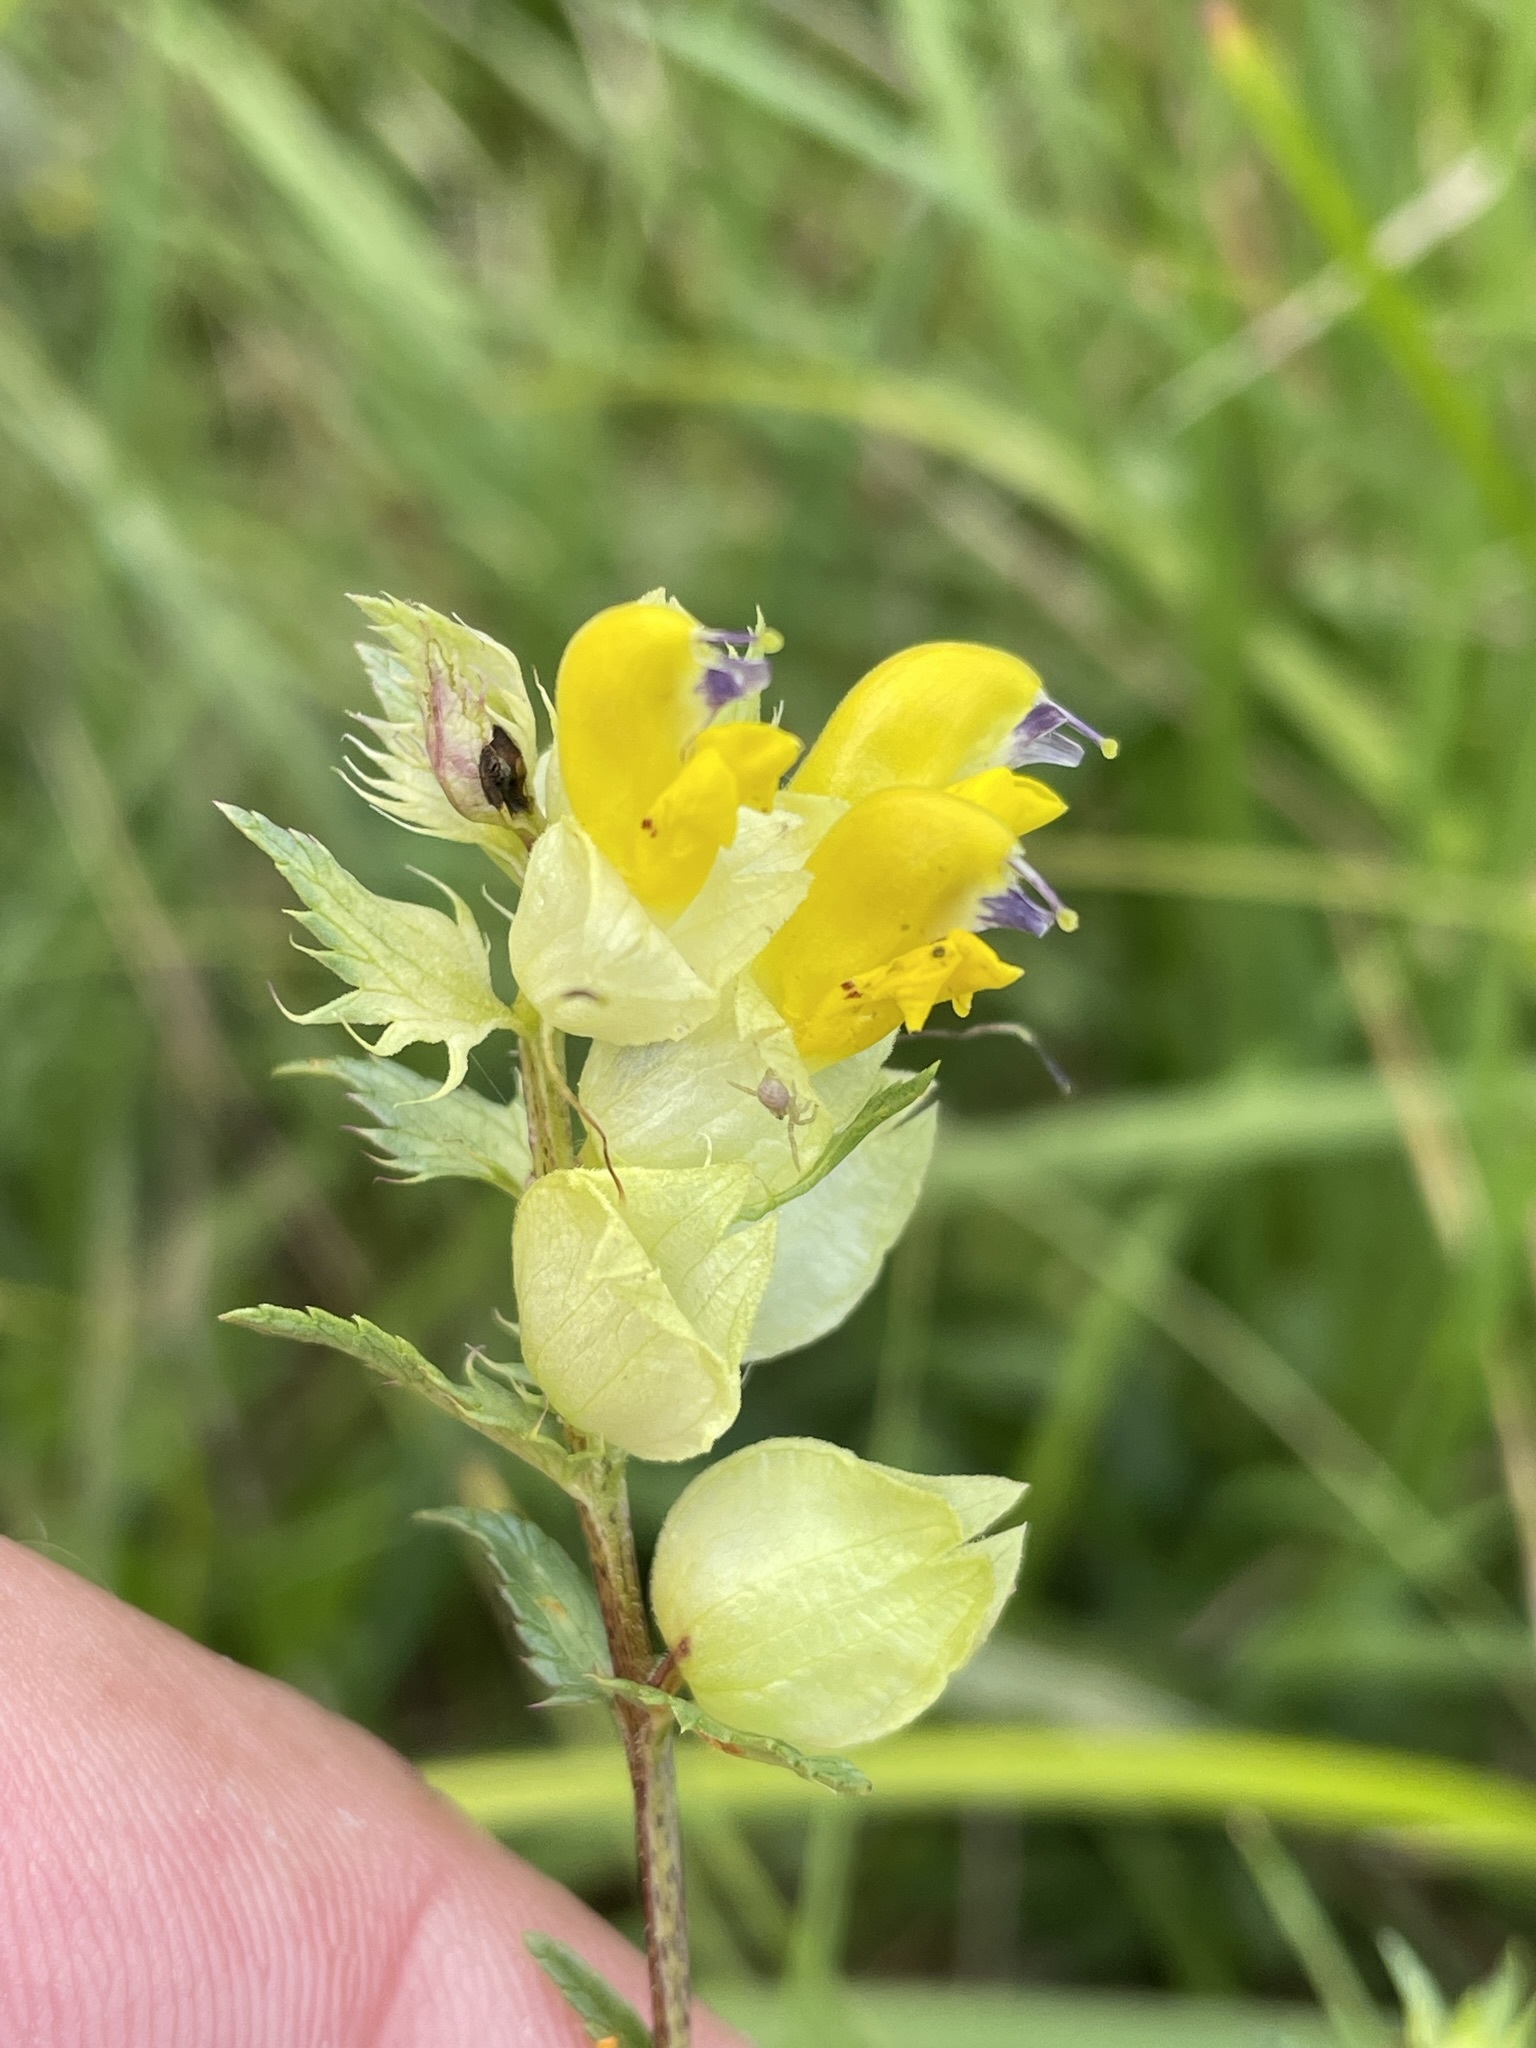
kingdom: Plantae
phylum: Tracheophyta
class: Magnoliopsida
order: Lamiales
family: Orobanchaceae
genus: Rhinanthus
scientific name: Rhinanthus glacialis
